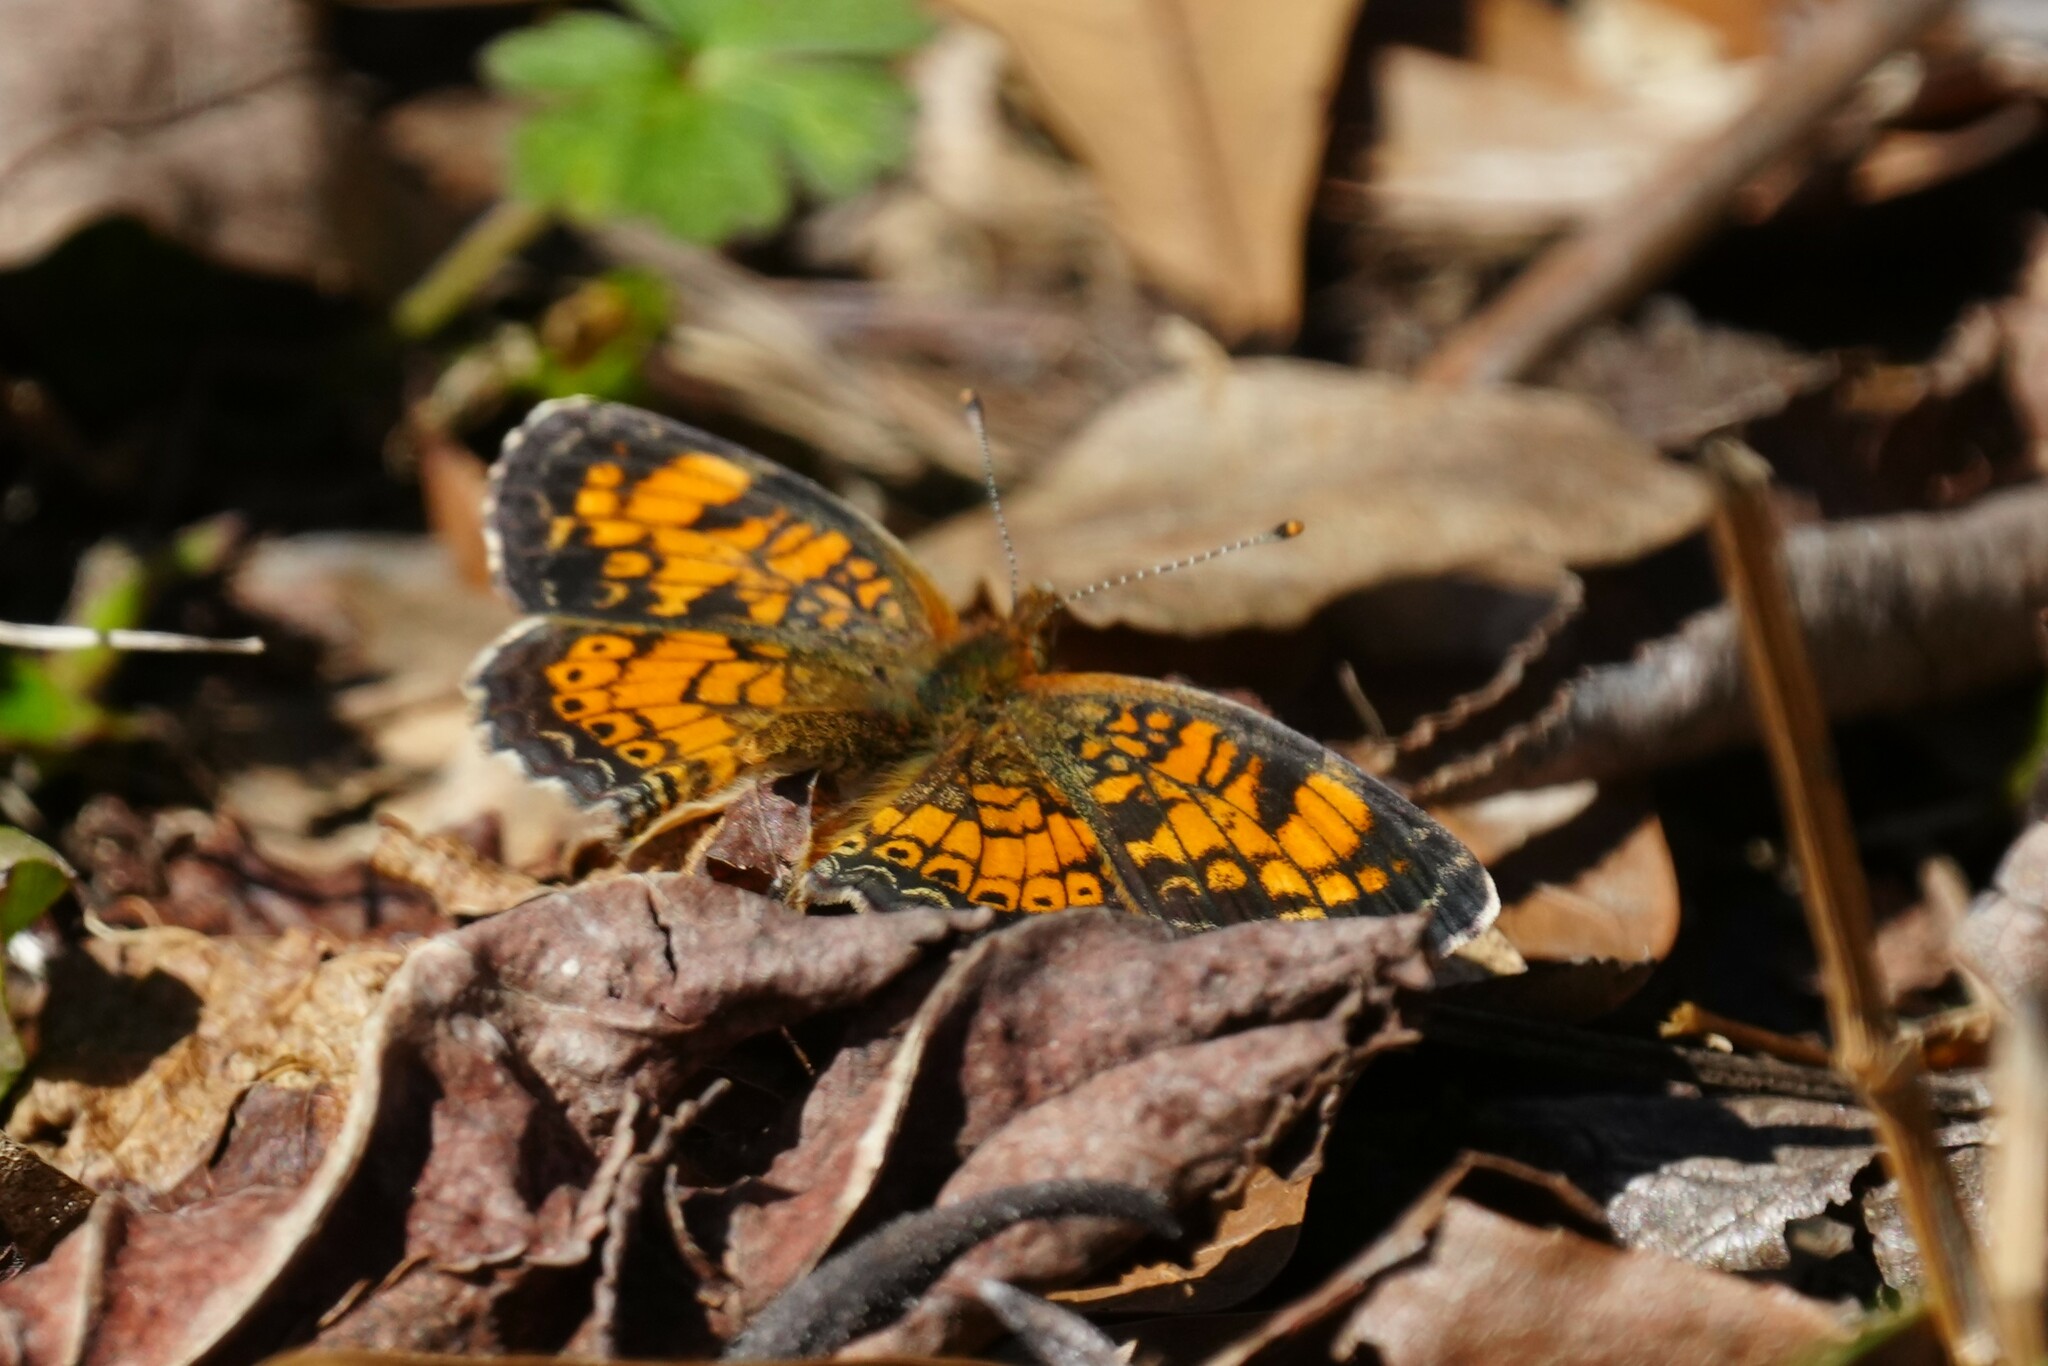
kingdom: Animalia
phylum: Arthropoda
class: Insecta
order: Lepidoptera
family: Nymphalidae
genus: Phyciodes
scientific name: Phyciodes tharos
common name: Pearl crescent
